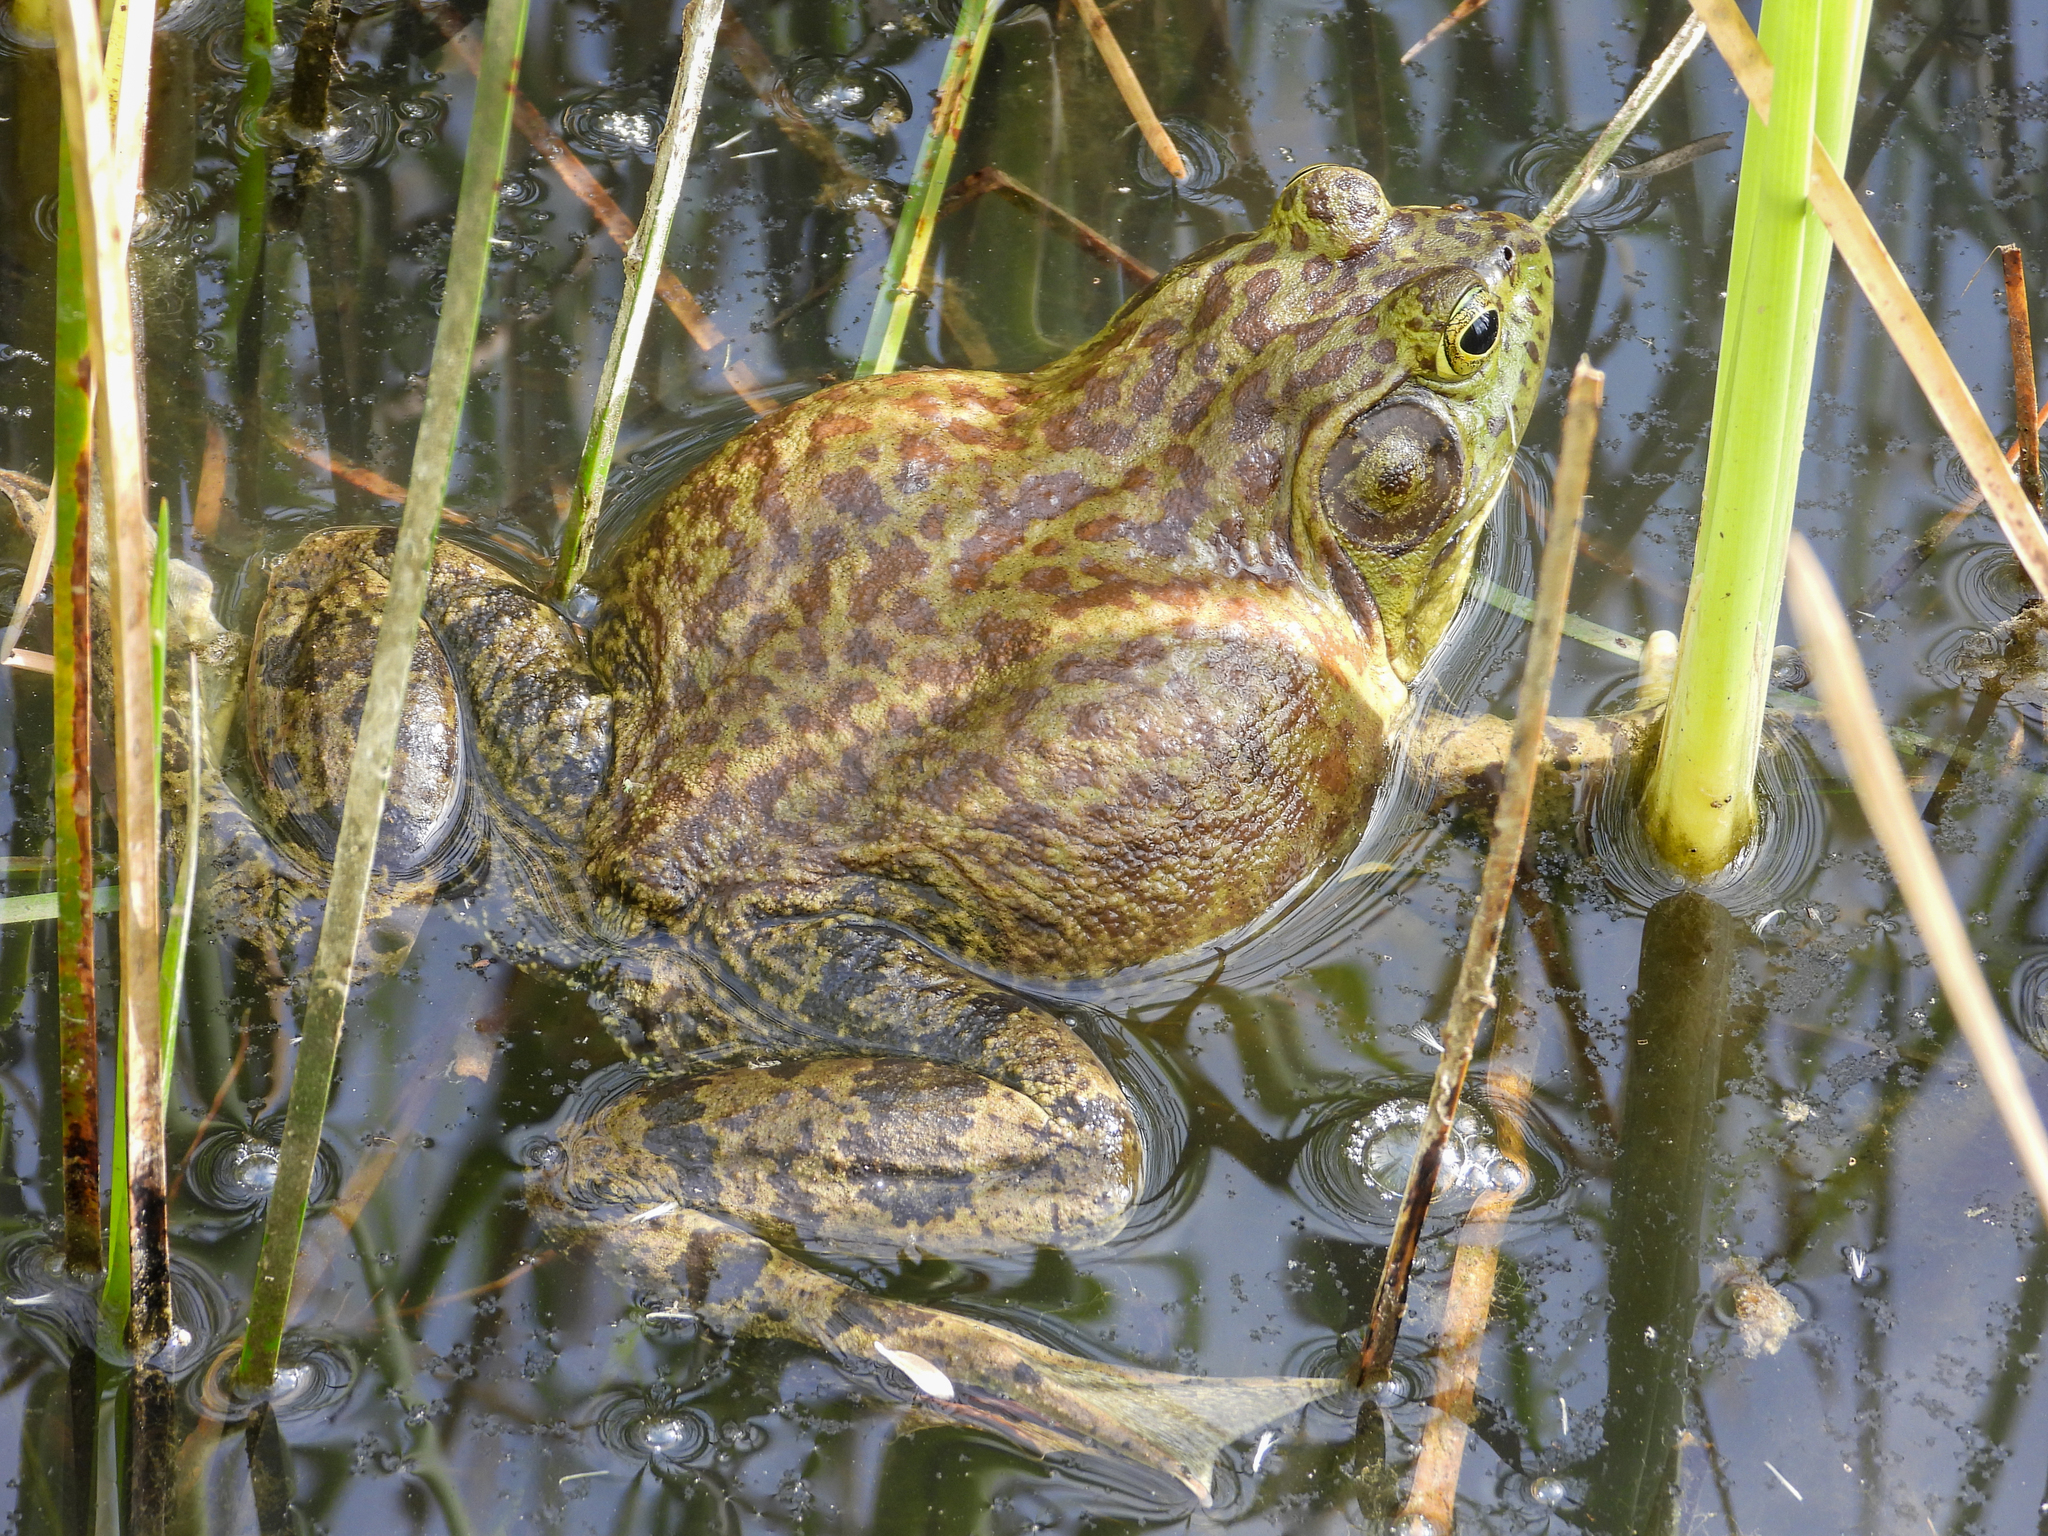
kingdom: Animalia
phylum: Chordata
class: Amphibia
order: Anura
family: Ranidae
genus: Lithobates
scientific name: Lithobates catesbeianus
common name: American bullfrog
